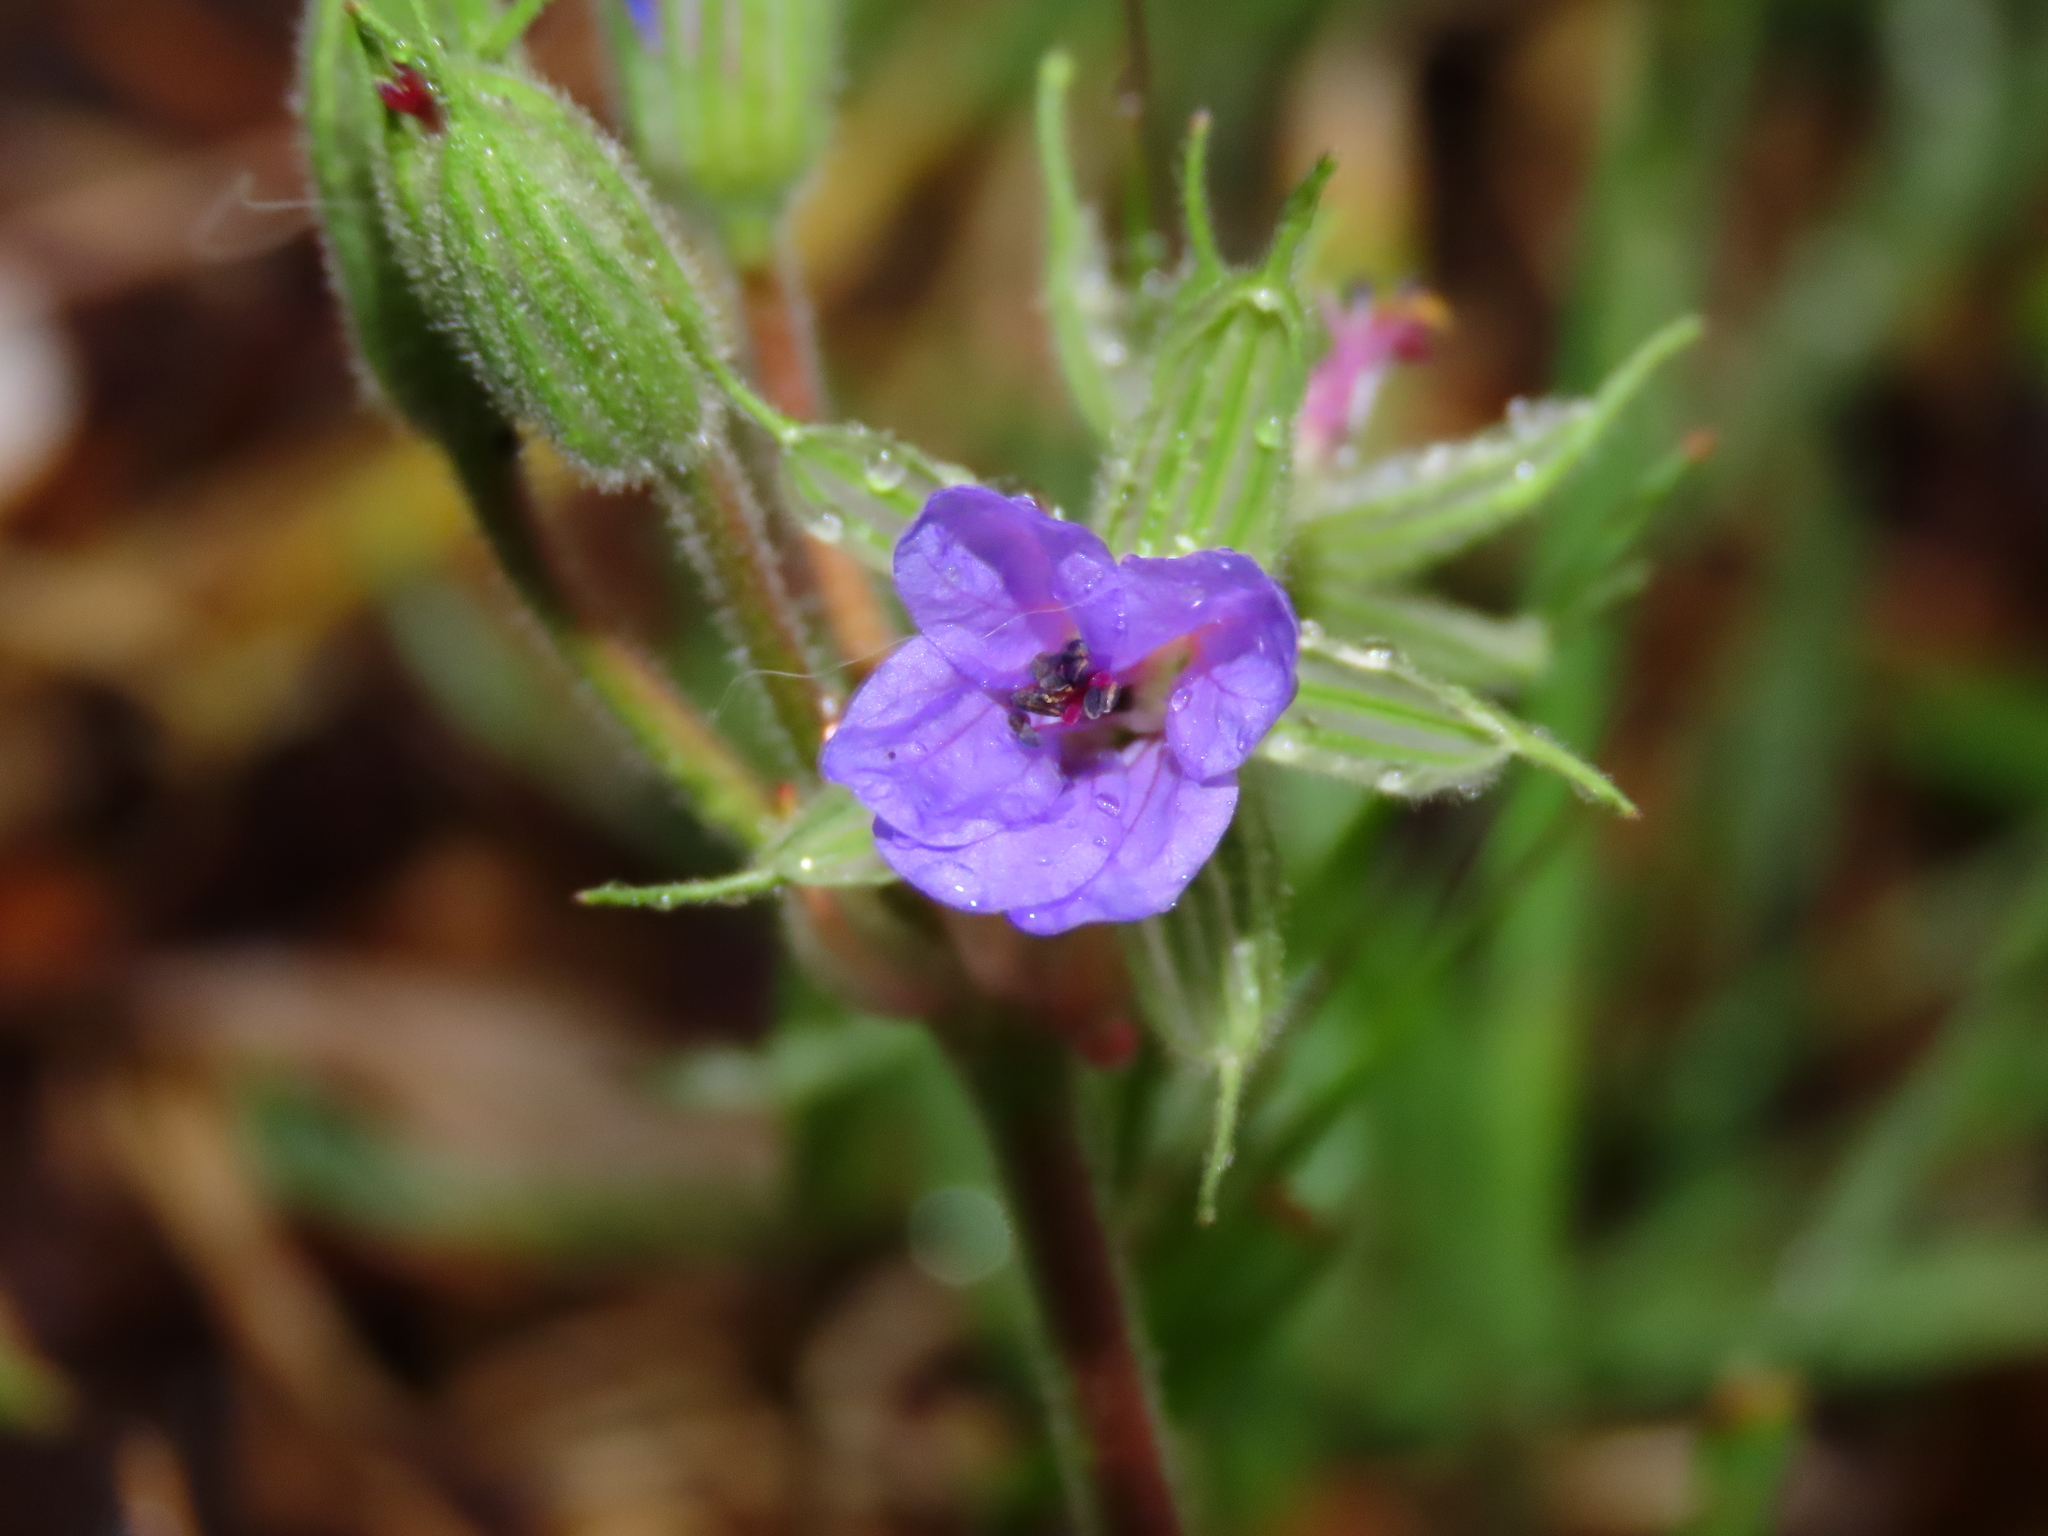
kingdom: Plantae
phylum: Tracheophyta
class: Magnoliopsida
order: Geraniales
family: Geraniaceae
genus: Erodium
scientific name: Erodium ciconium
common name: Common stork's bill
